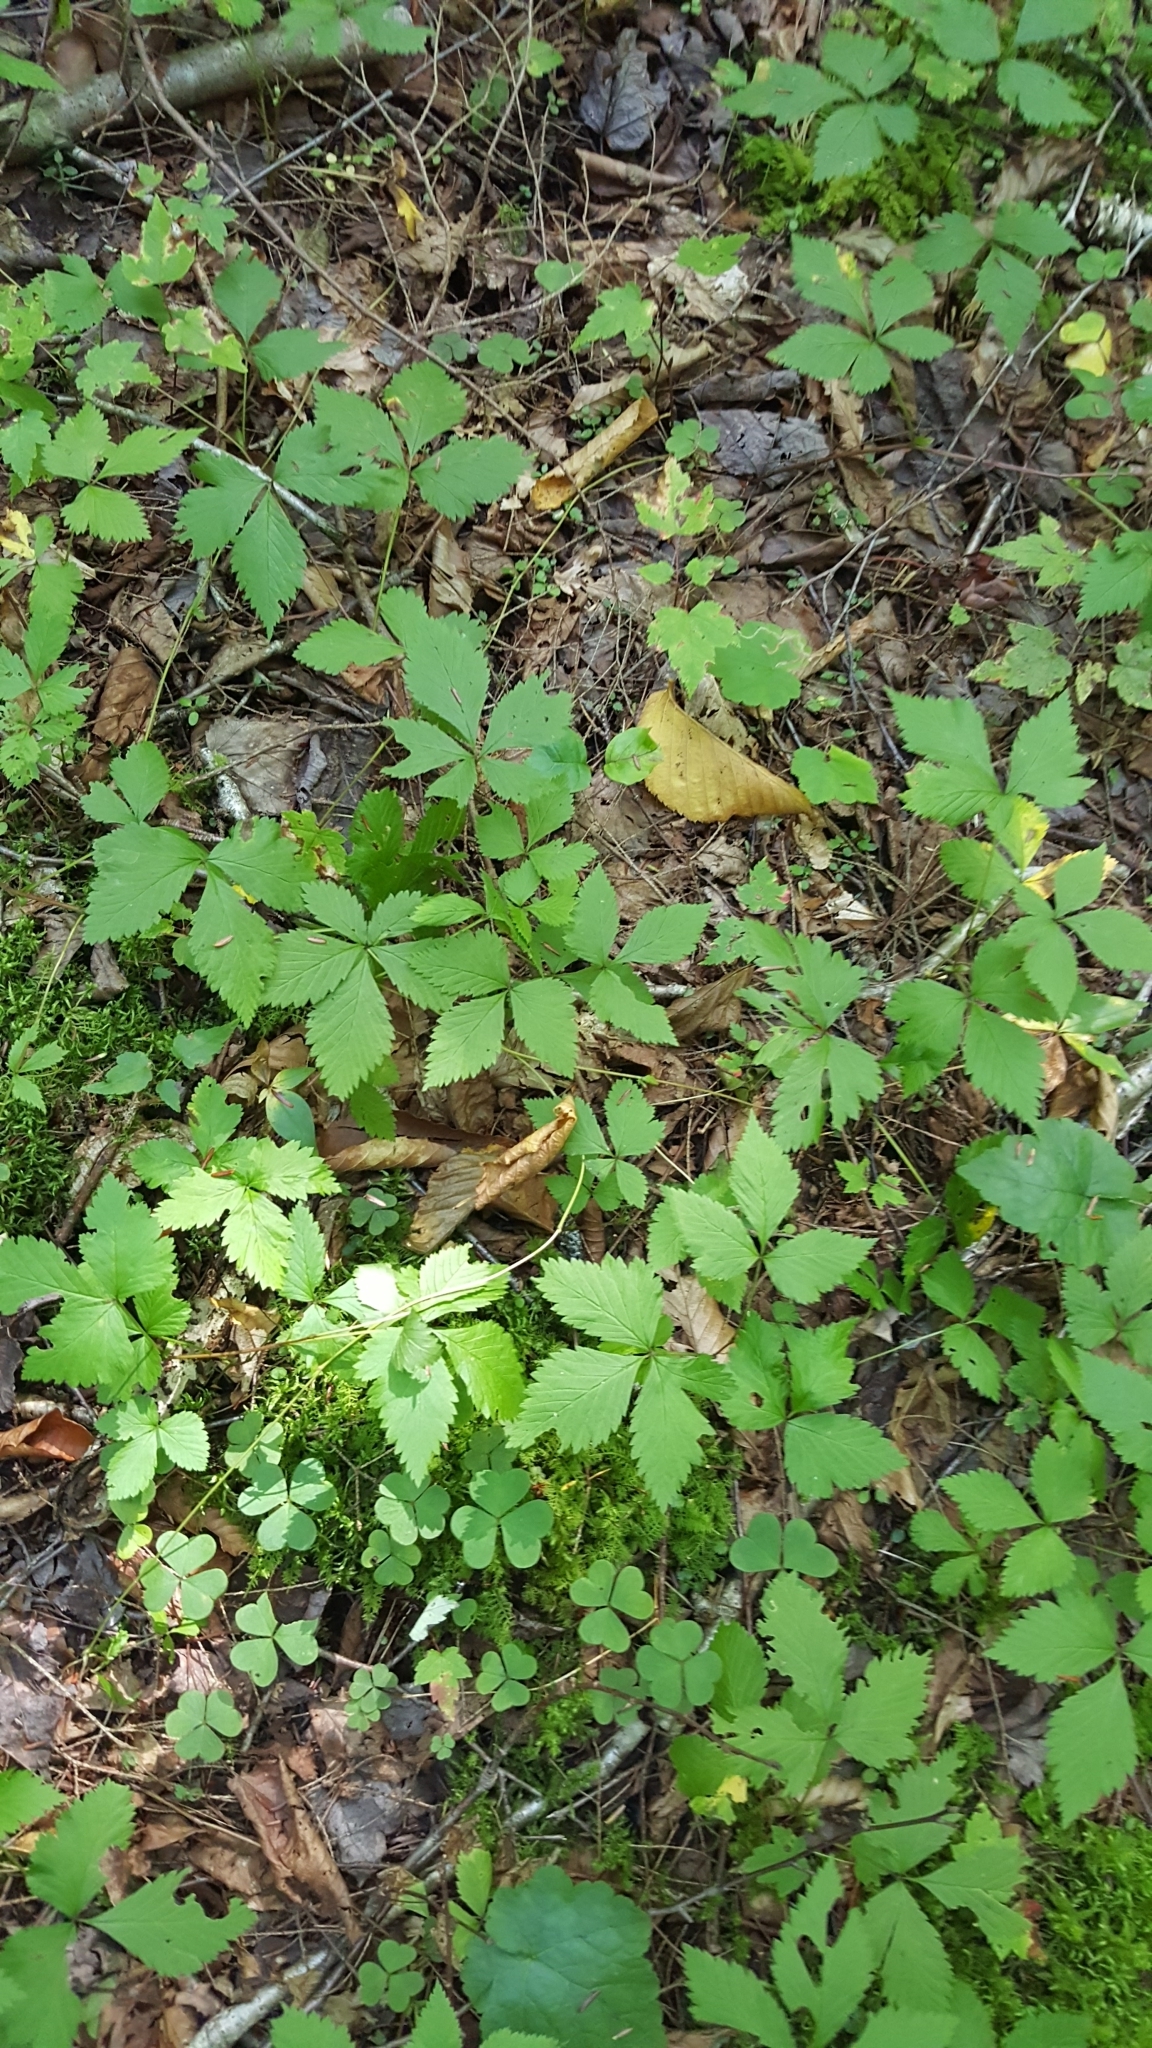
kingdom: Plantae
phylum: Tracheophyta
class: Magnoliopsida
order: Rosales
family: Rosaceae
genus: Rubus
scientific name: Rubus pubescens
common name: Dwarf raspberry
